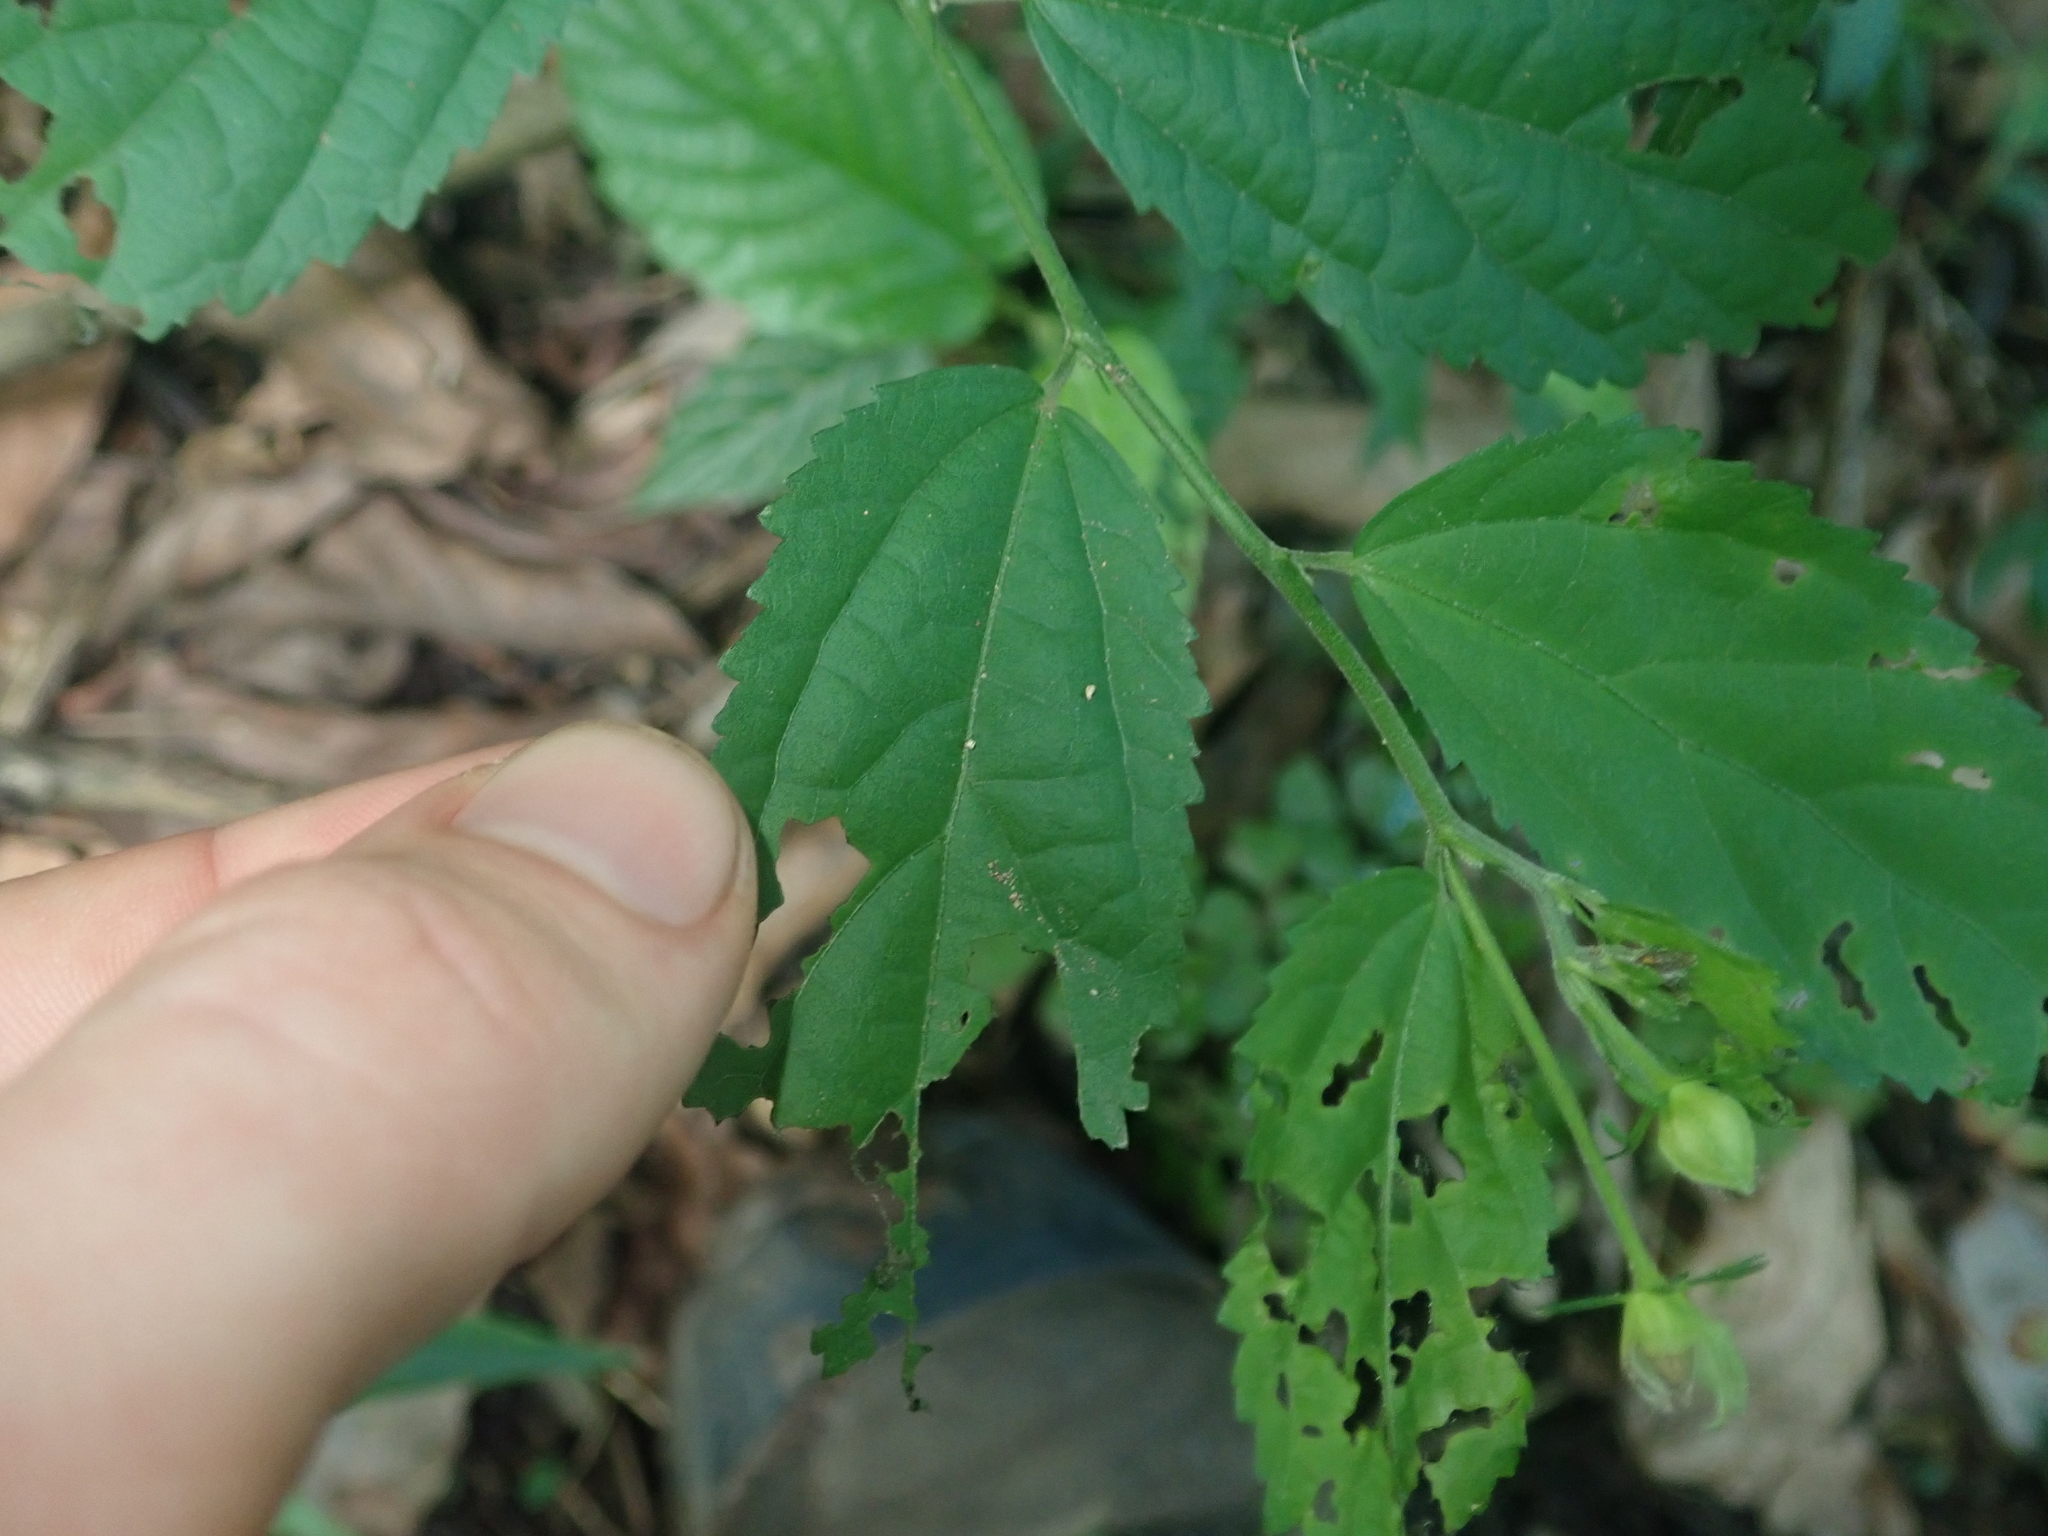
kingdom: Plantae
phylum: Tracheophyta
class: Magnoliopsida
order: Malvales
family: Malvaceae
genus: Pavonia
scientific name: Pavonia sepium
